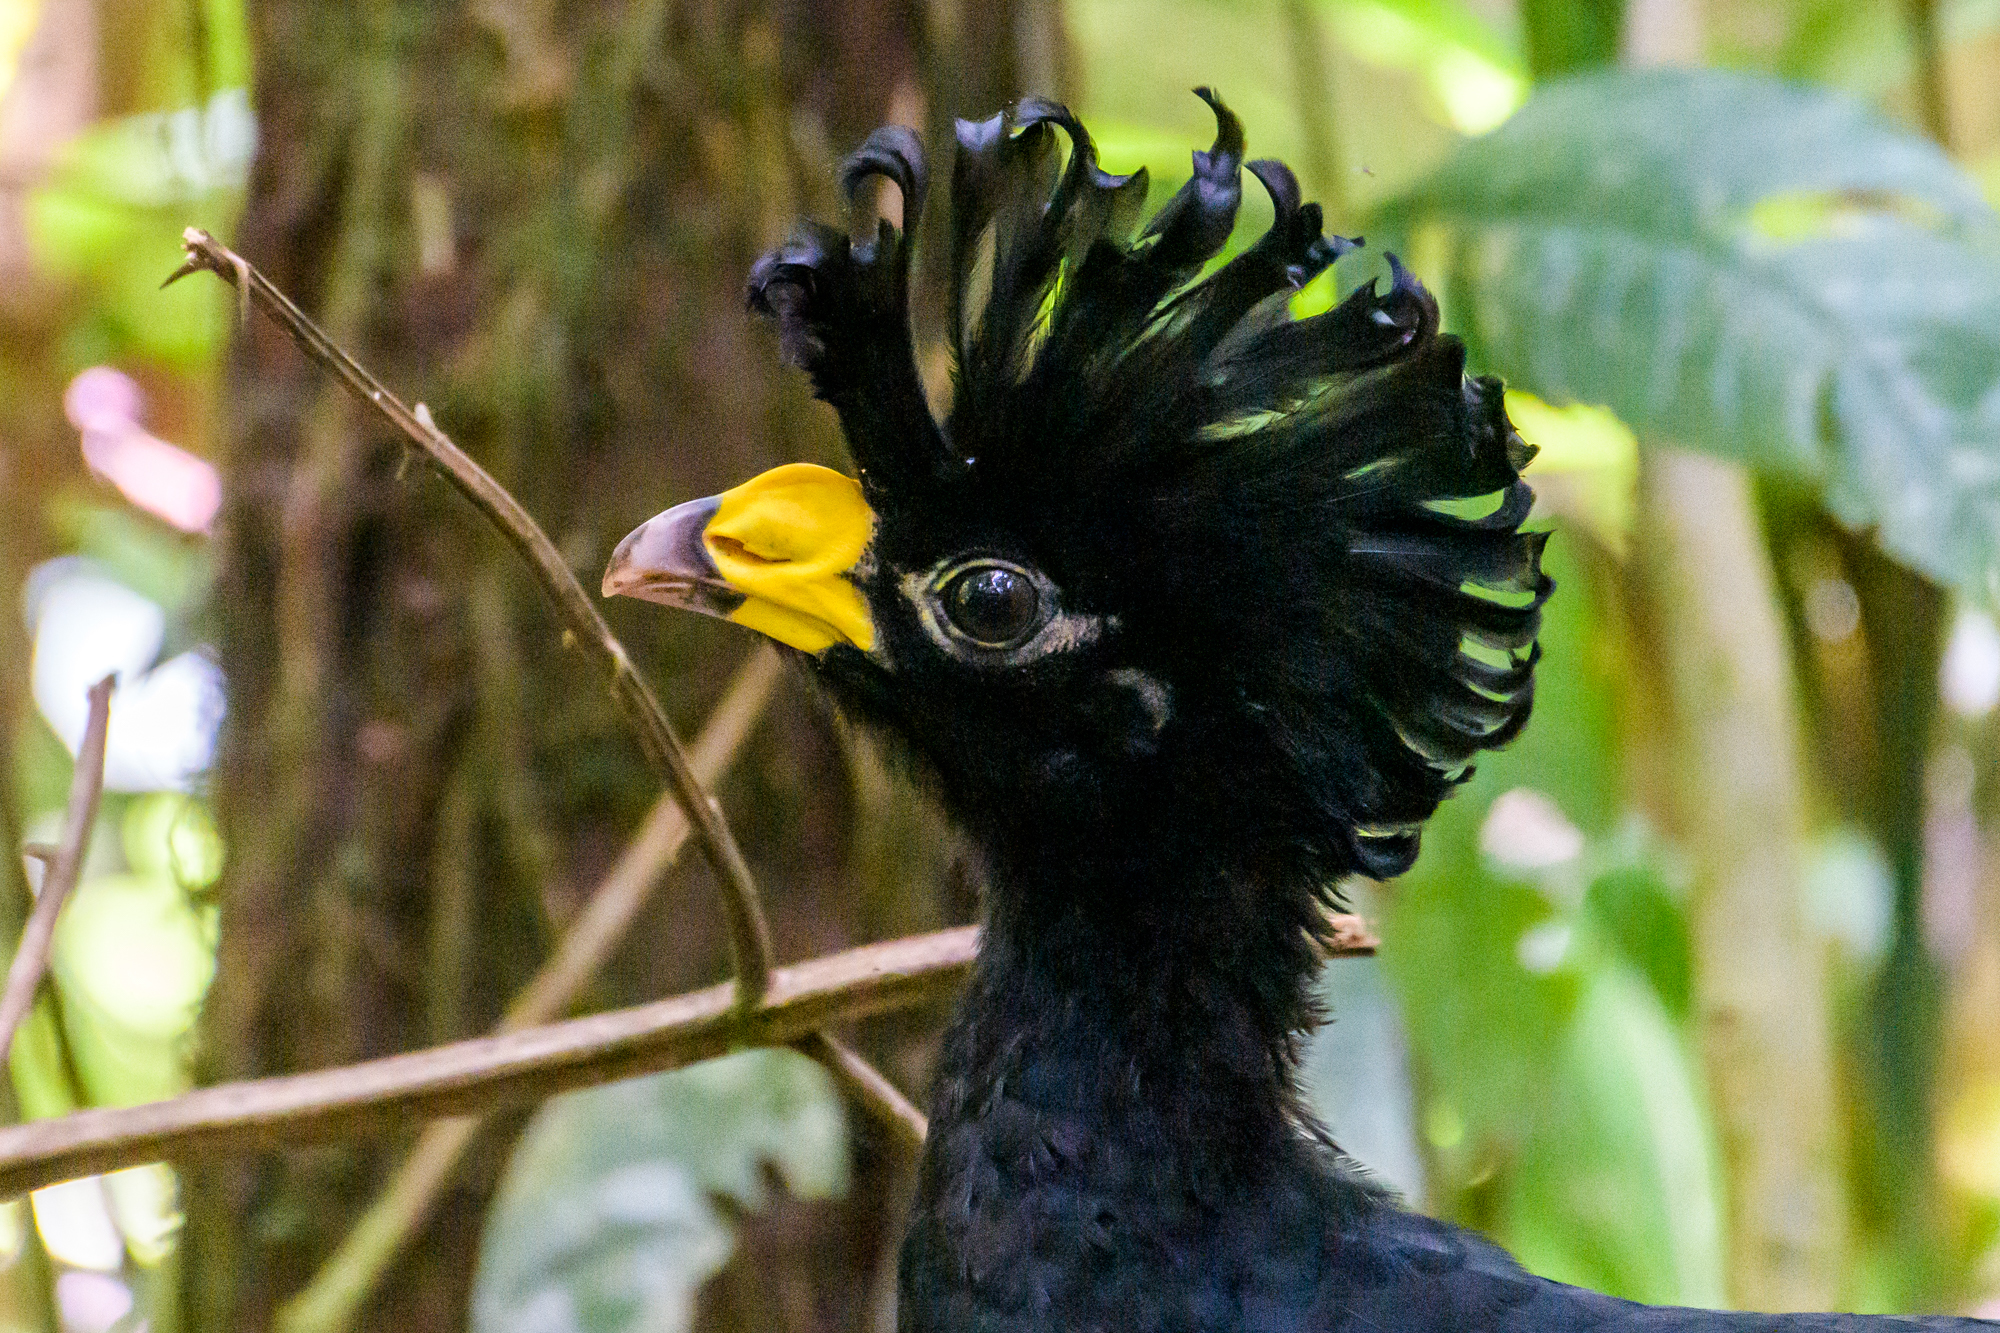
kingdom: Animalia
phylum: Chordata
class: Aves
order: Galliformes
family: Cracidae
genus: Crax
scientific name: Crax rubra
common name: Great curassow
